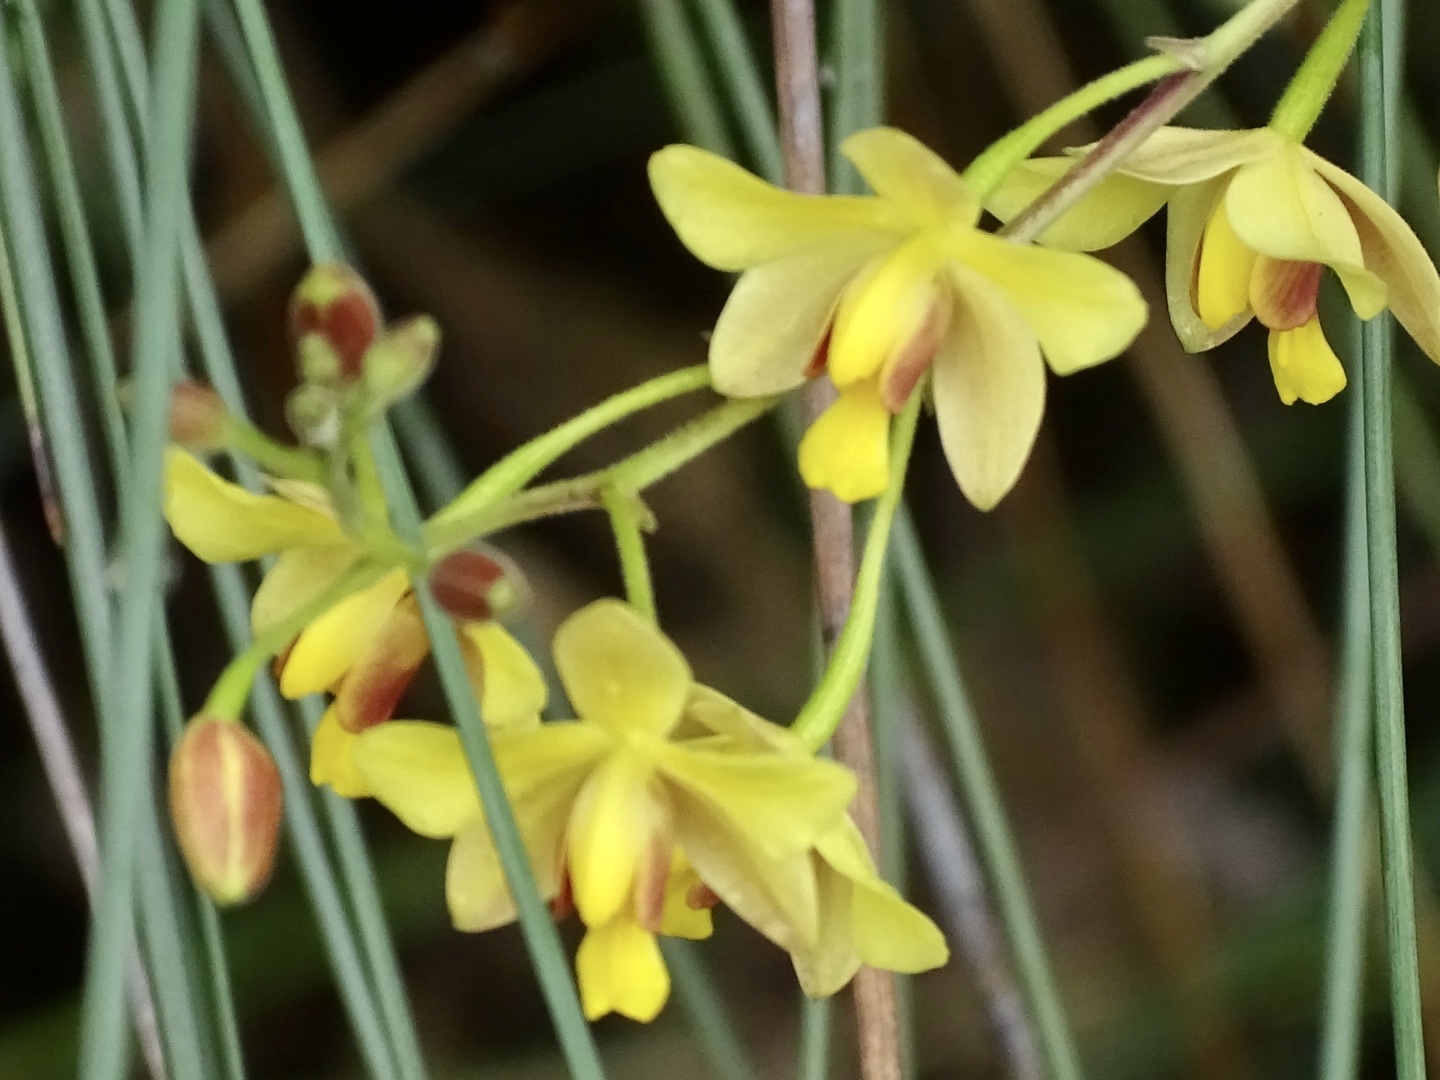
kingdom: Plantae
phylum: Tracheophyta
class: Liliopsida
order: Asparagales
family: Orchidaceae
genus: Spathoglottis
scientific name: Spathoglottis pubescens
